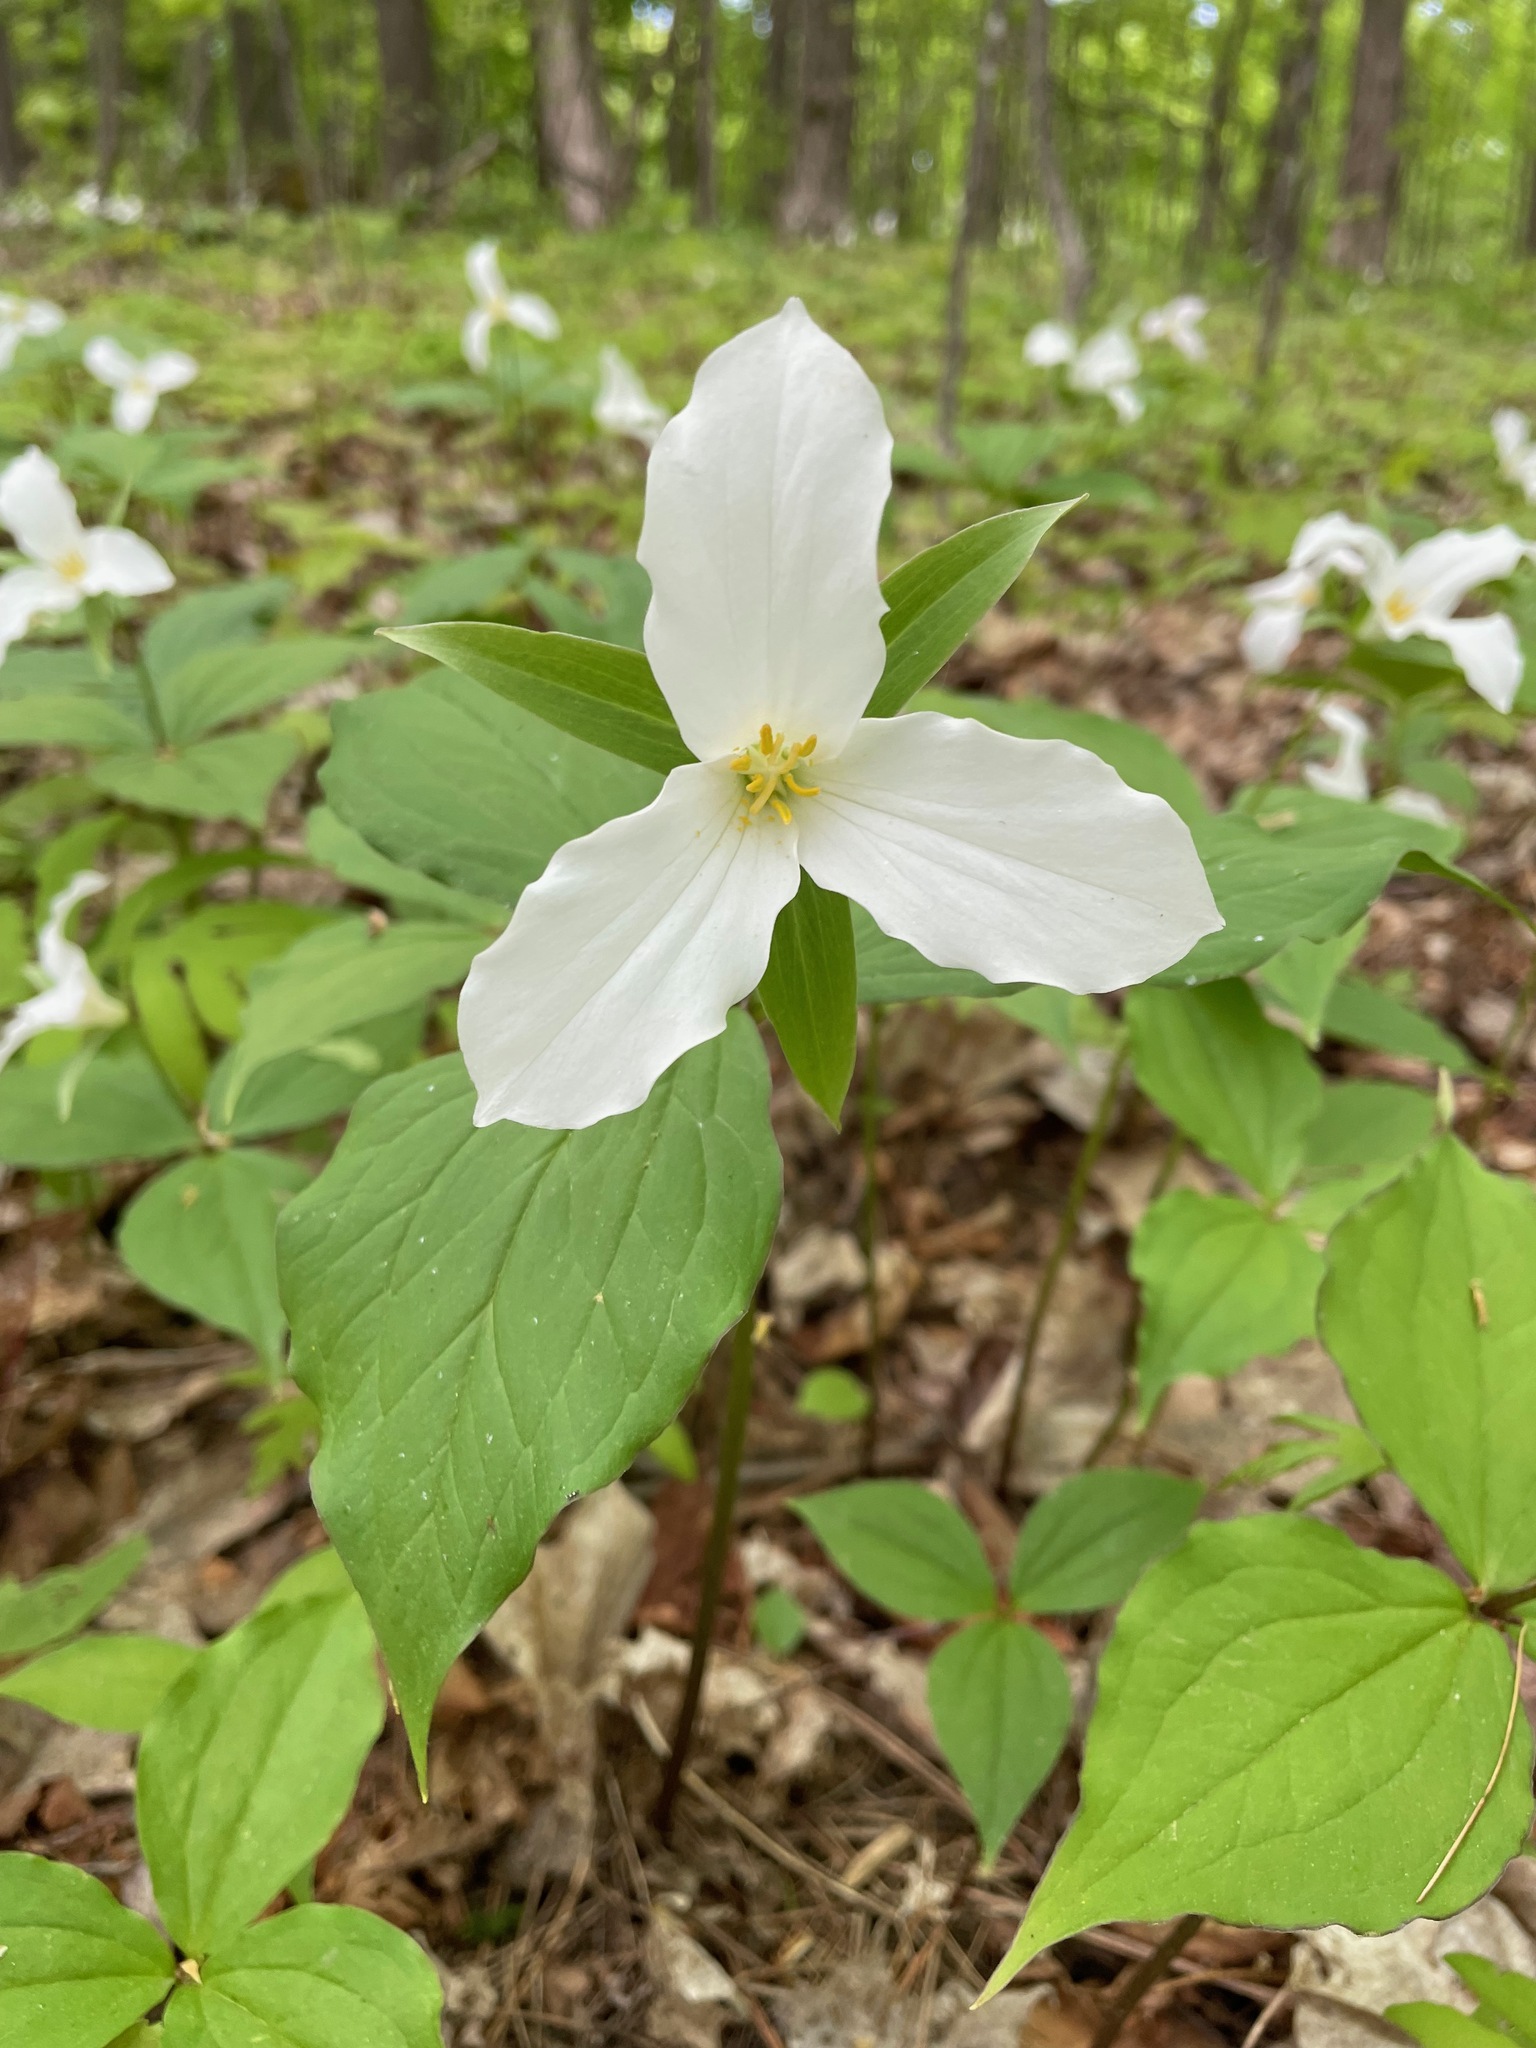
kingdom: Plantae
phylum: Tracheophyta
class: Liliopsida
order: Liliales
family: Melanthiaceae
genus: Trillium
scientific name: Trillium grandiflorum
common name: Great white trillium
